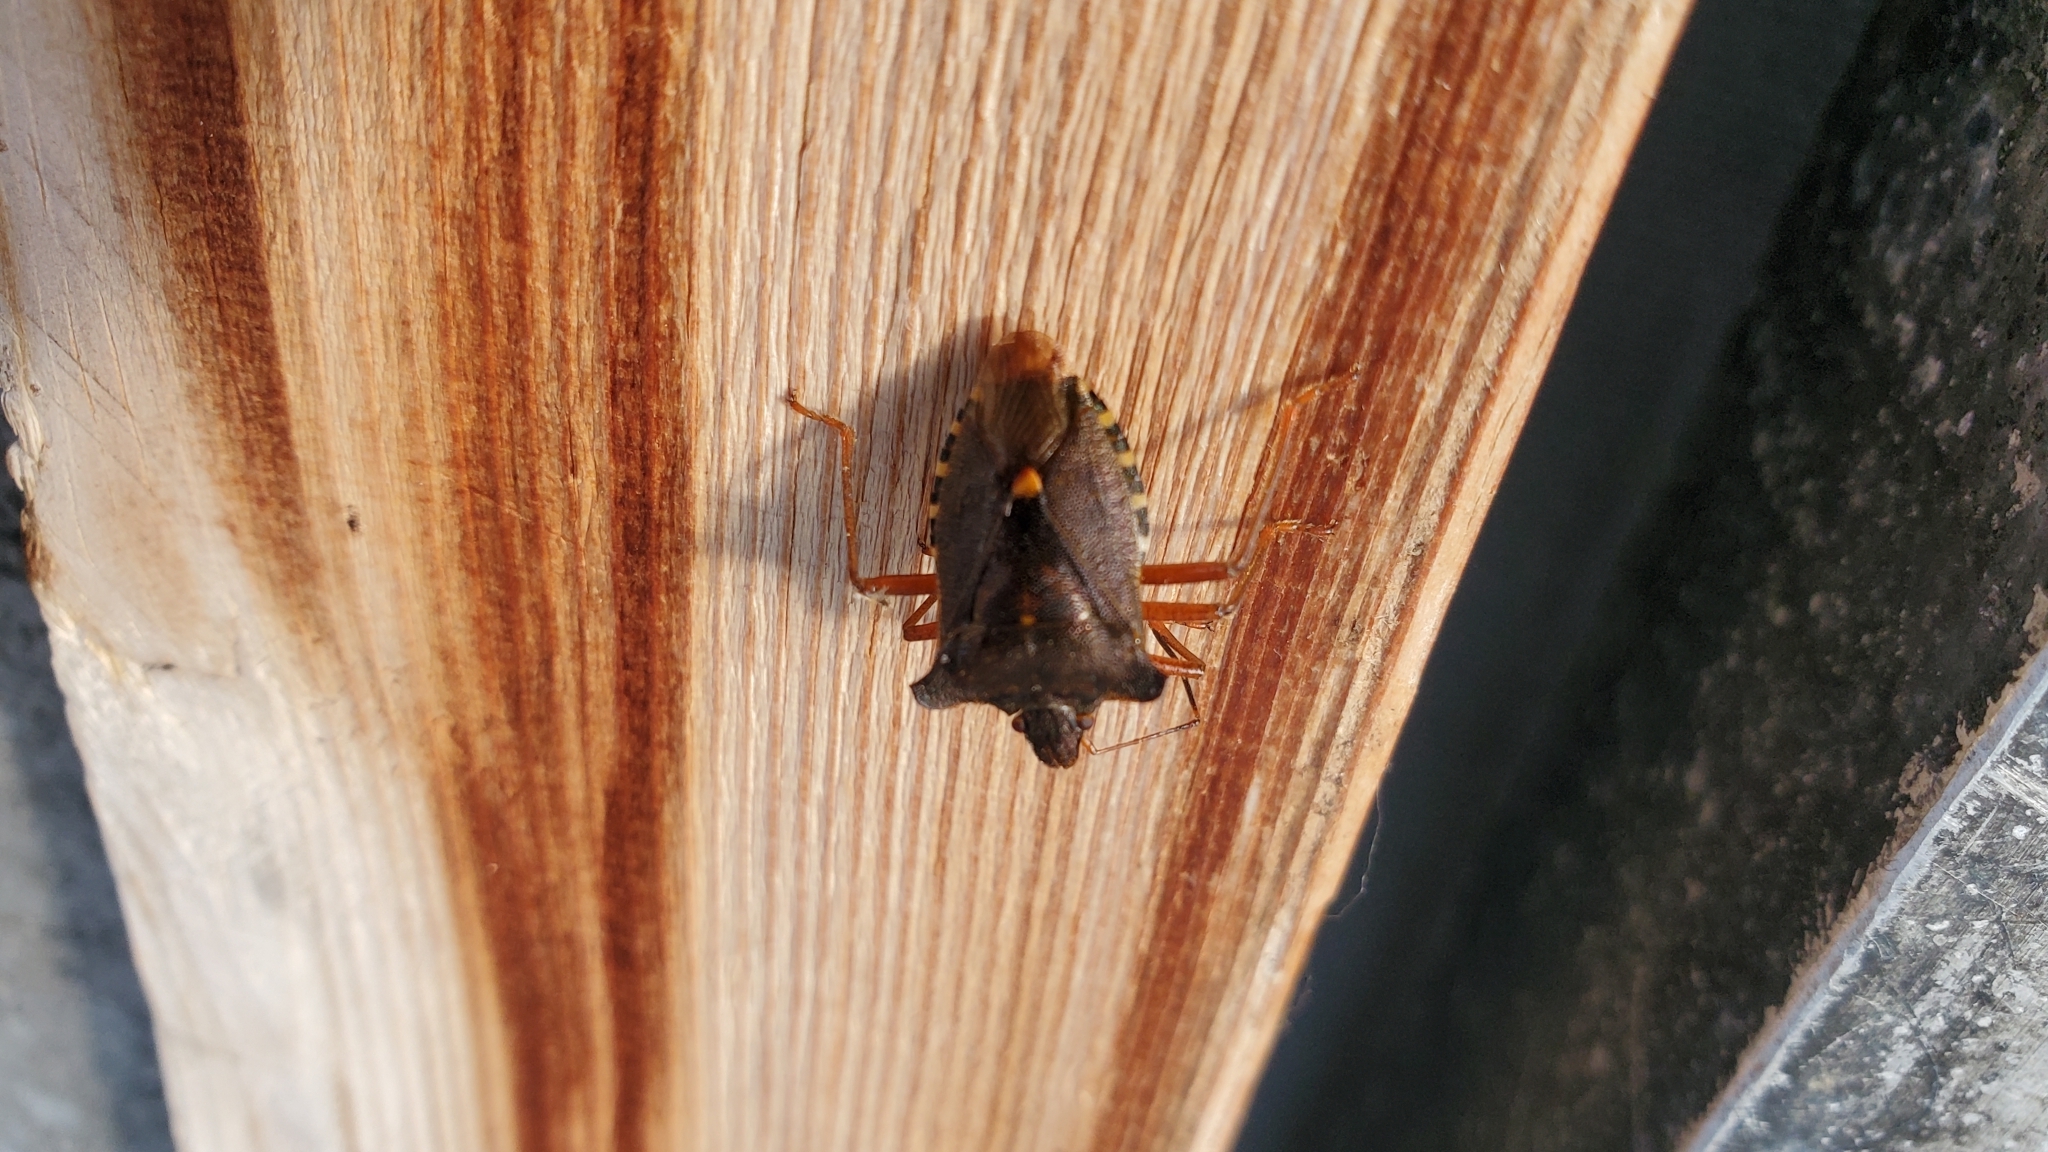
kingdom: Animalia
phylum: Arthropoda
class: Insecta
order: Hemiptera
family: Pentatomidae
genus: Pentatoma
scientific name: Pentatoma rufipes
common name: Forest bug
